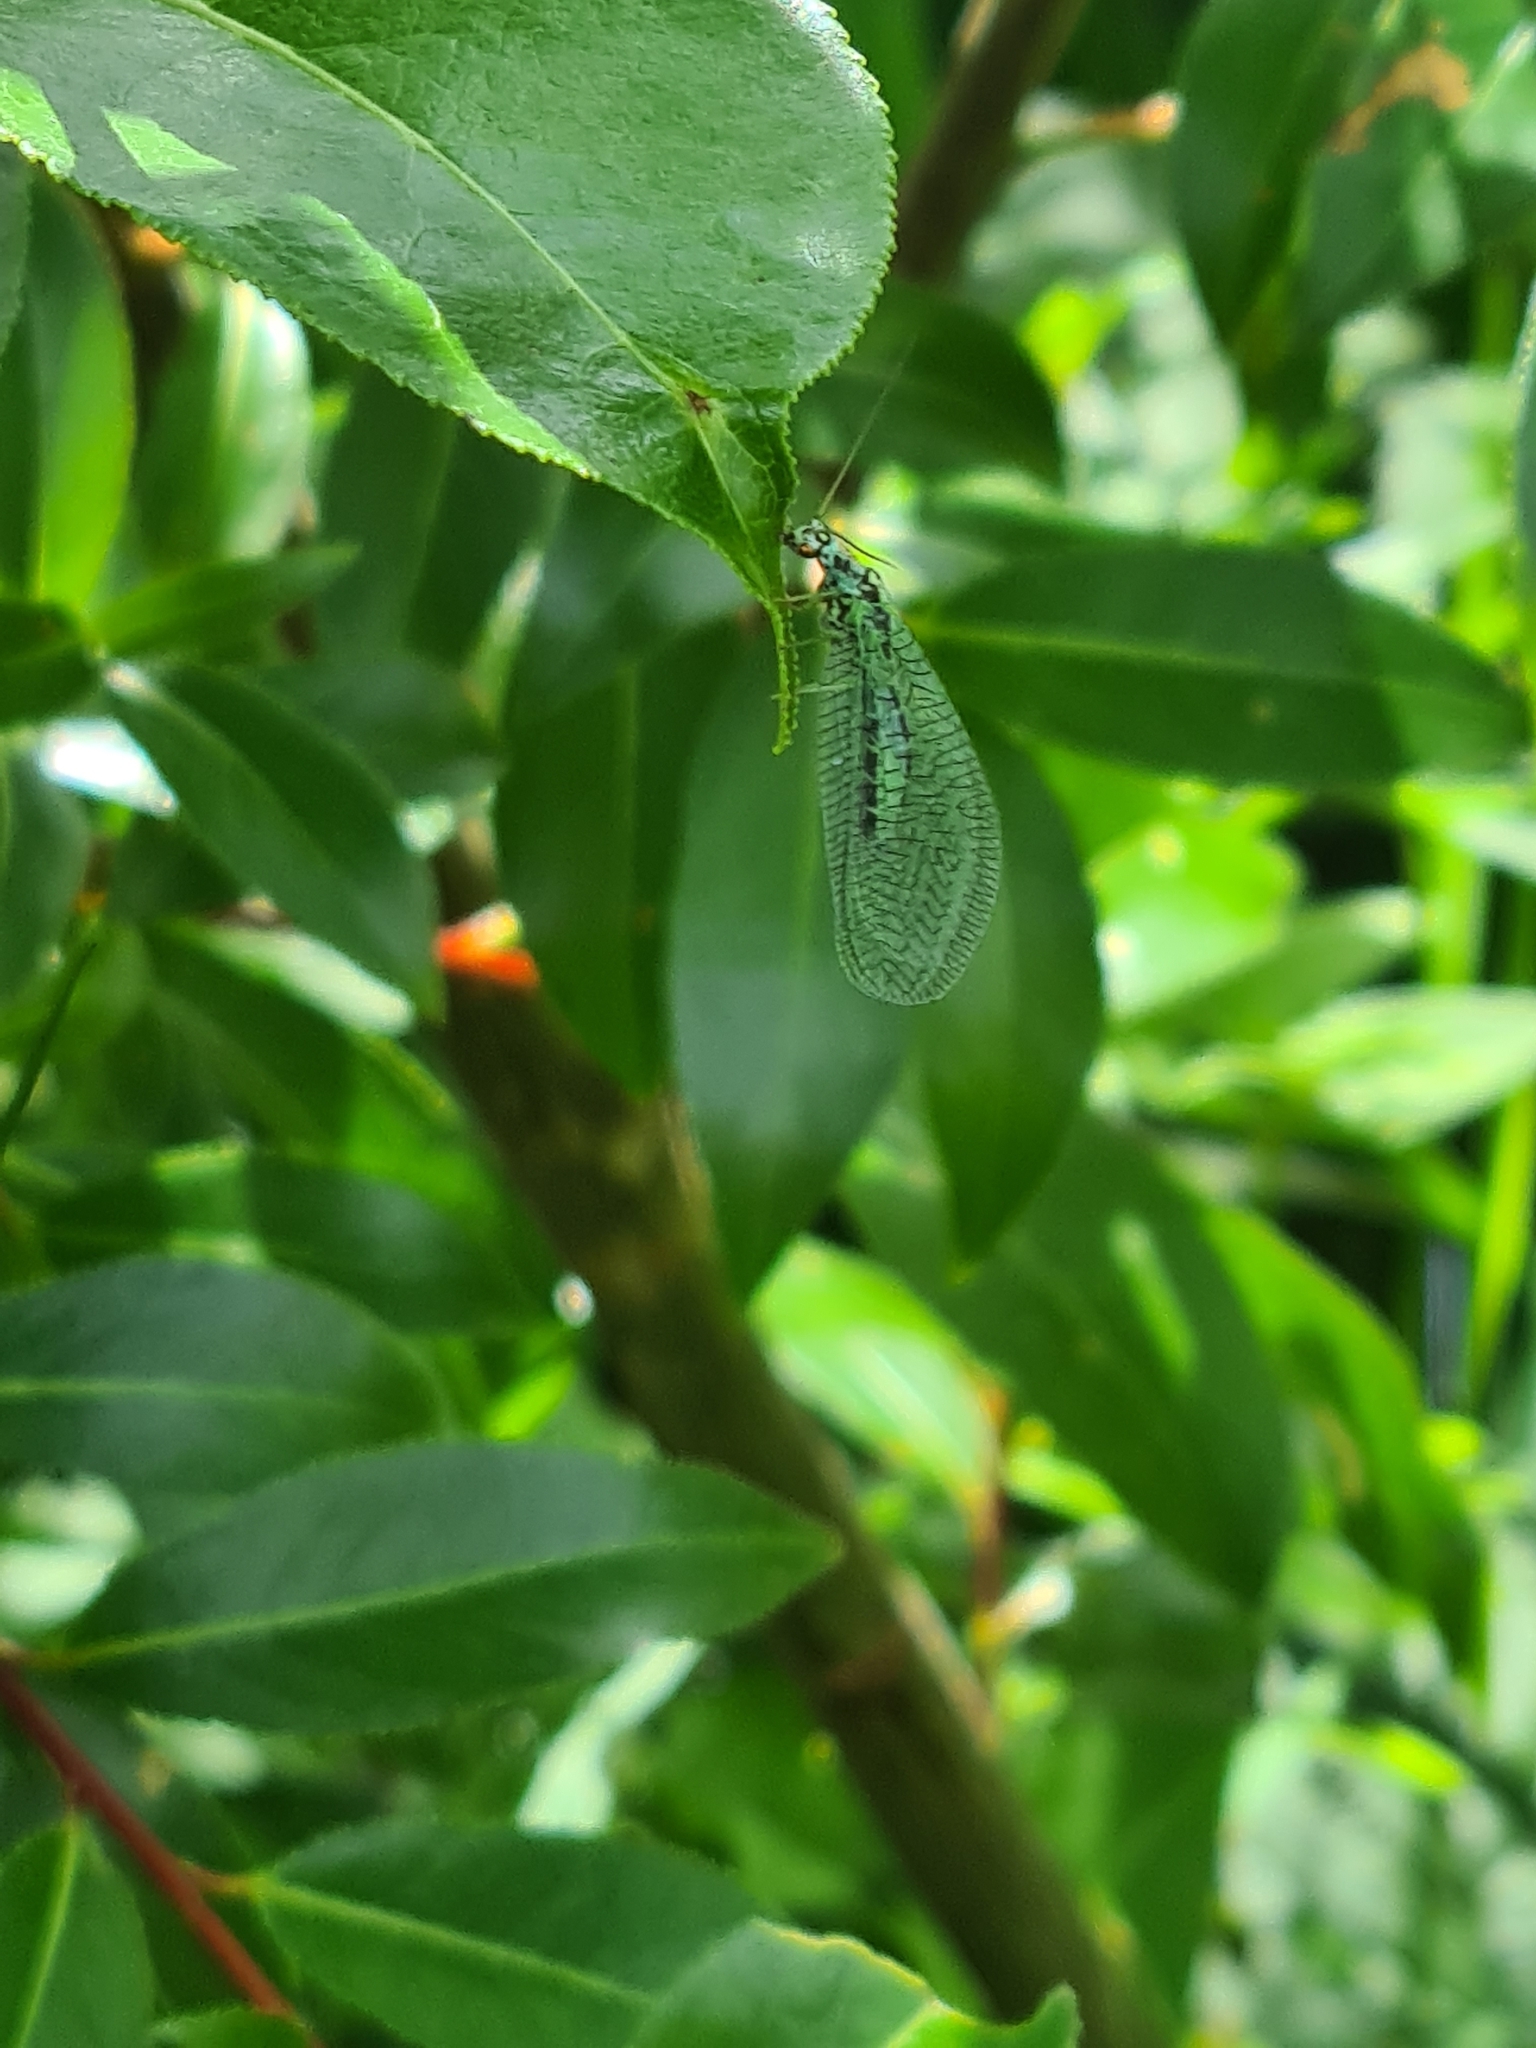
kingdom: Animalia
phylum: Arthropoda
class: Insecta
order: Neuroptera
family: Chrysopidae
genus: Chrysopa
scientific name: Chrysopa perla
